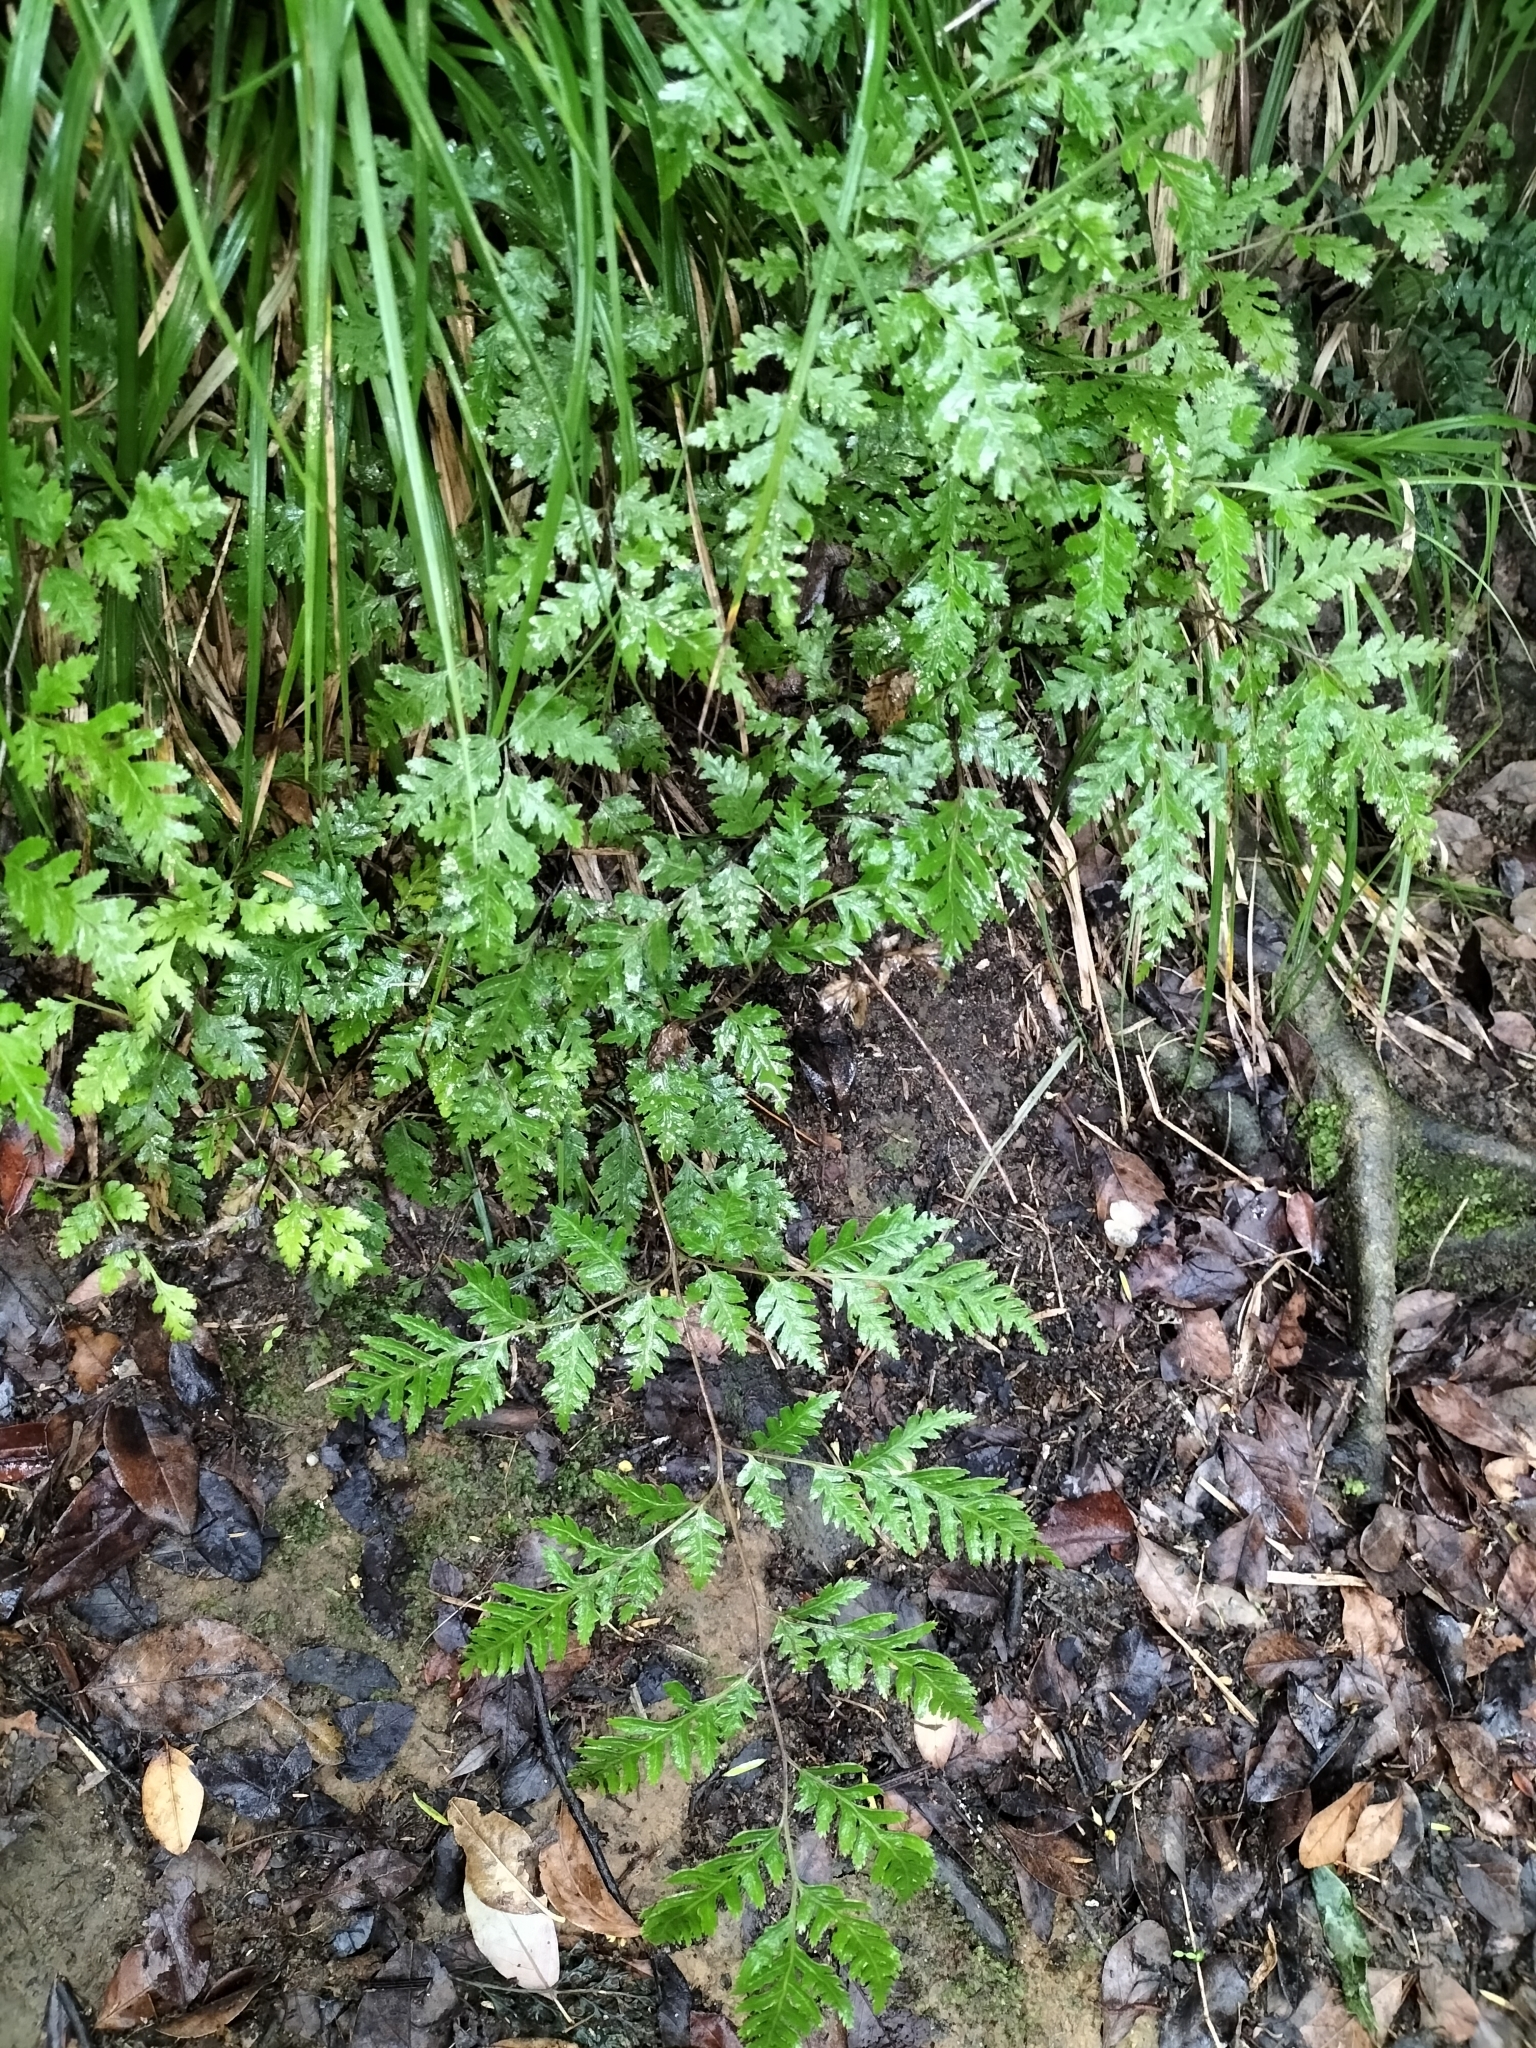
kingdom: Plantae
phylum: Tracheophyta
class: Polypodiopsida
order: Polypodiales
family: Pteridaceae
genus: Pteris
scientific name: Pteris macilenta
